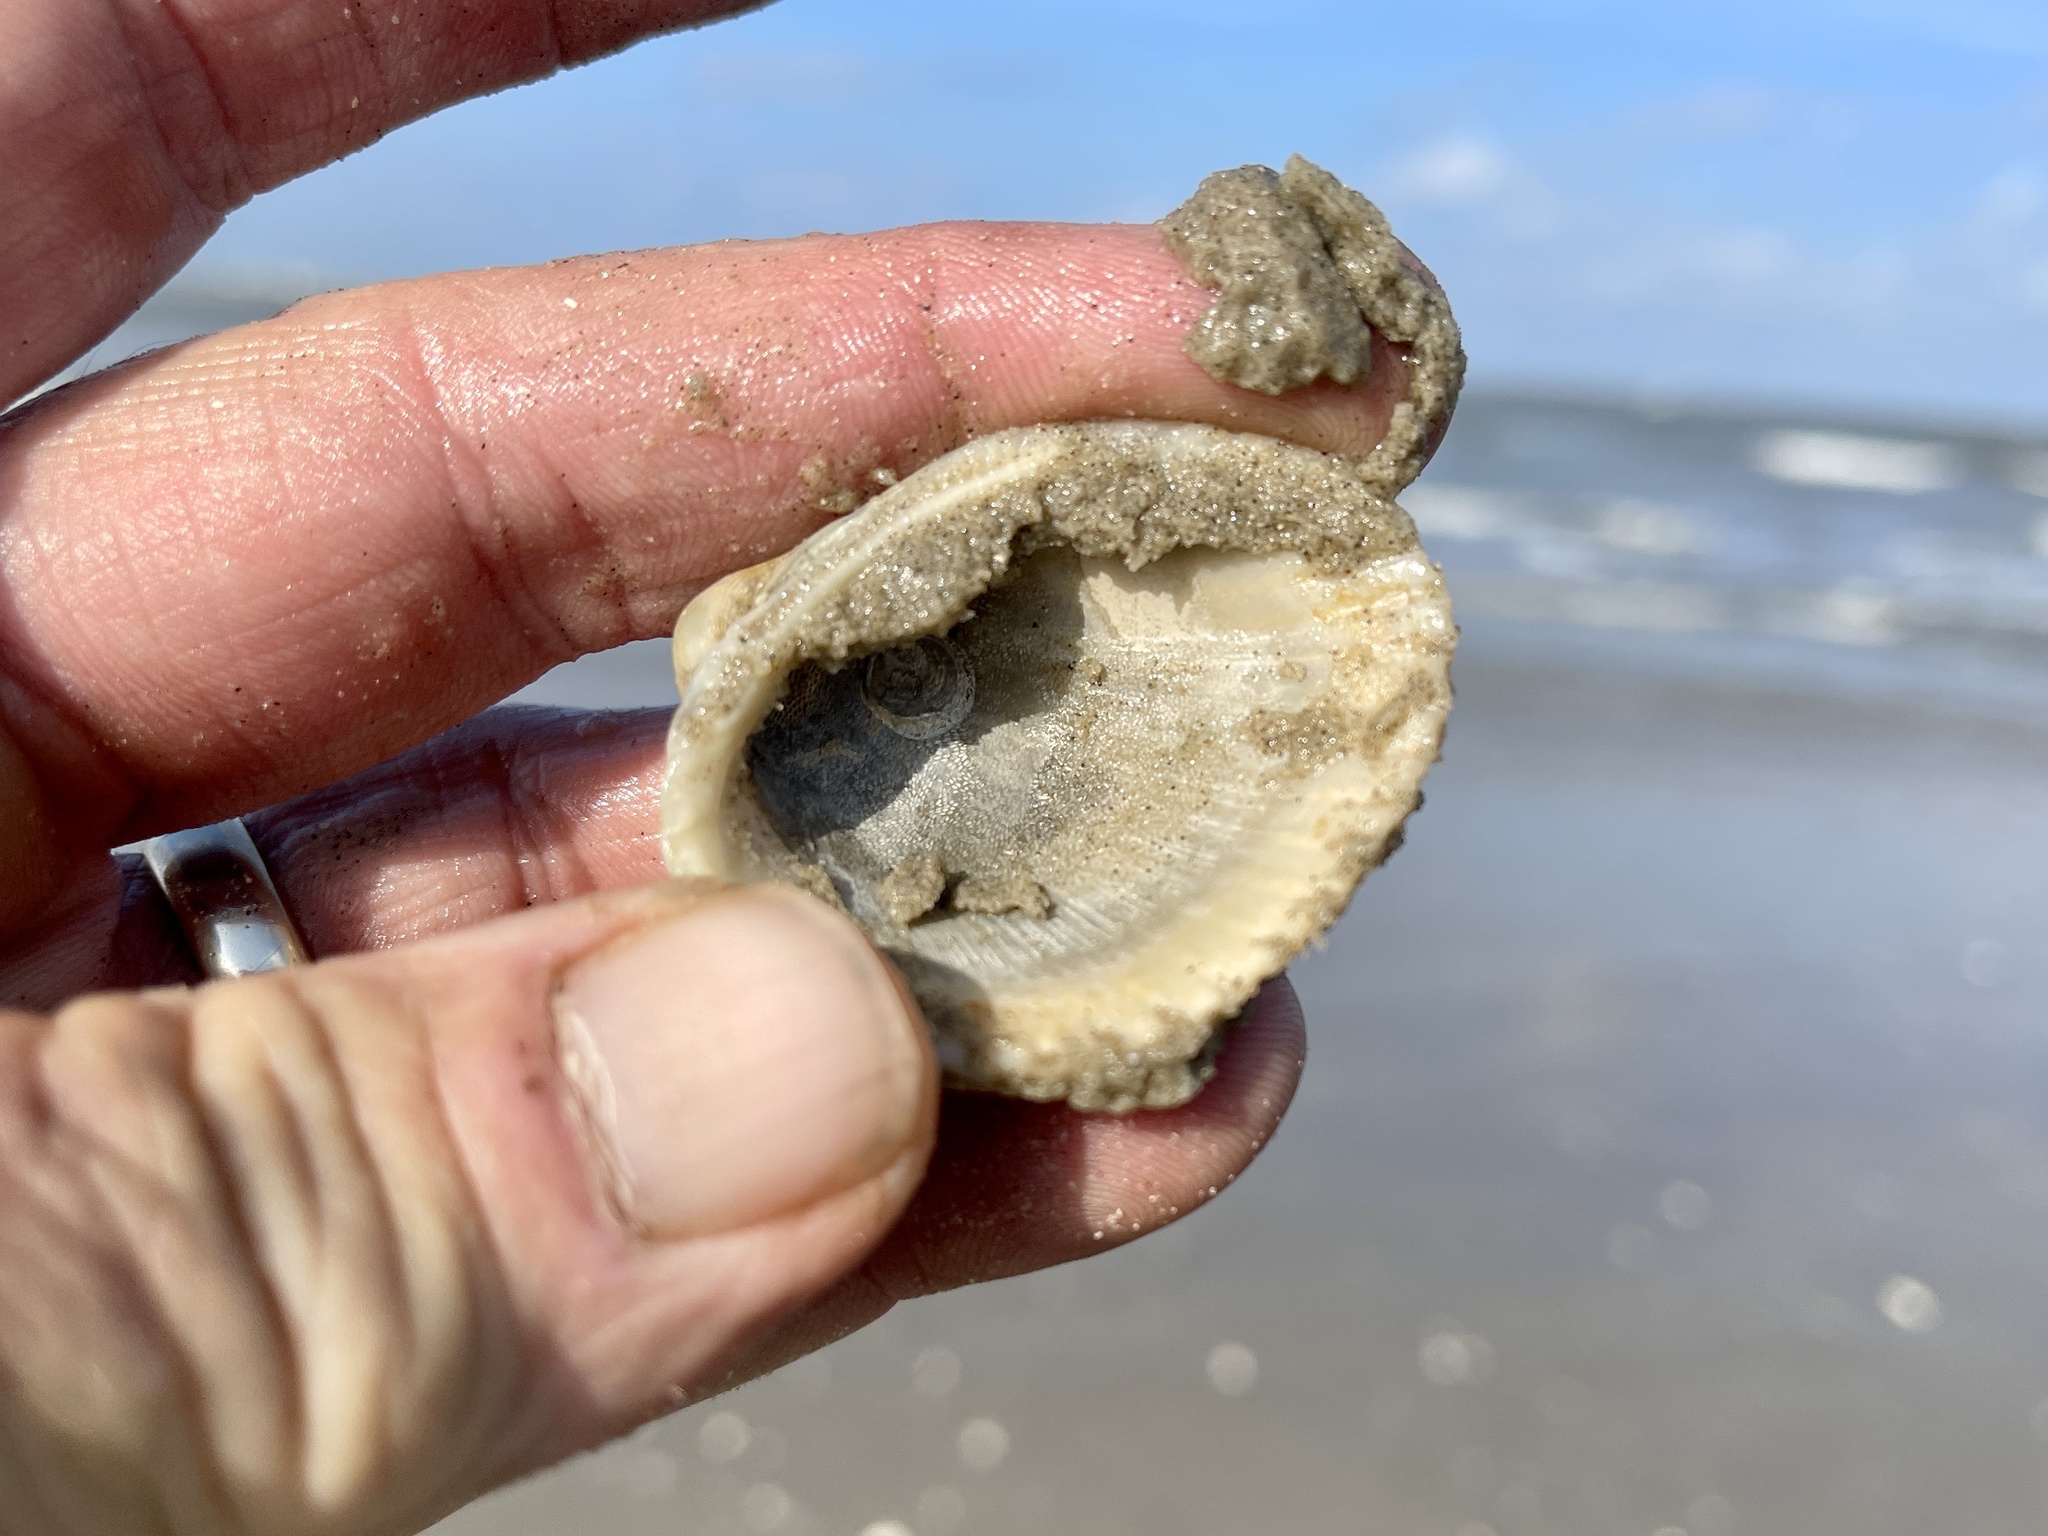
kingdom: Animalia
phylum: Mollusca
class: Bivalvia
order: Arcida
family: Arcidae
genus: Lunarca
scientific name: Lunarca ovalis
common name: Blood ark
